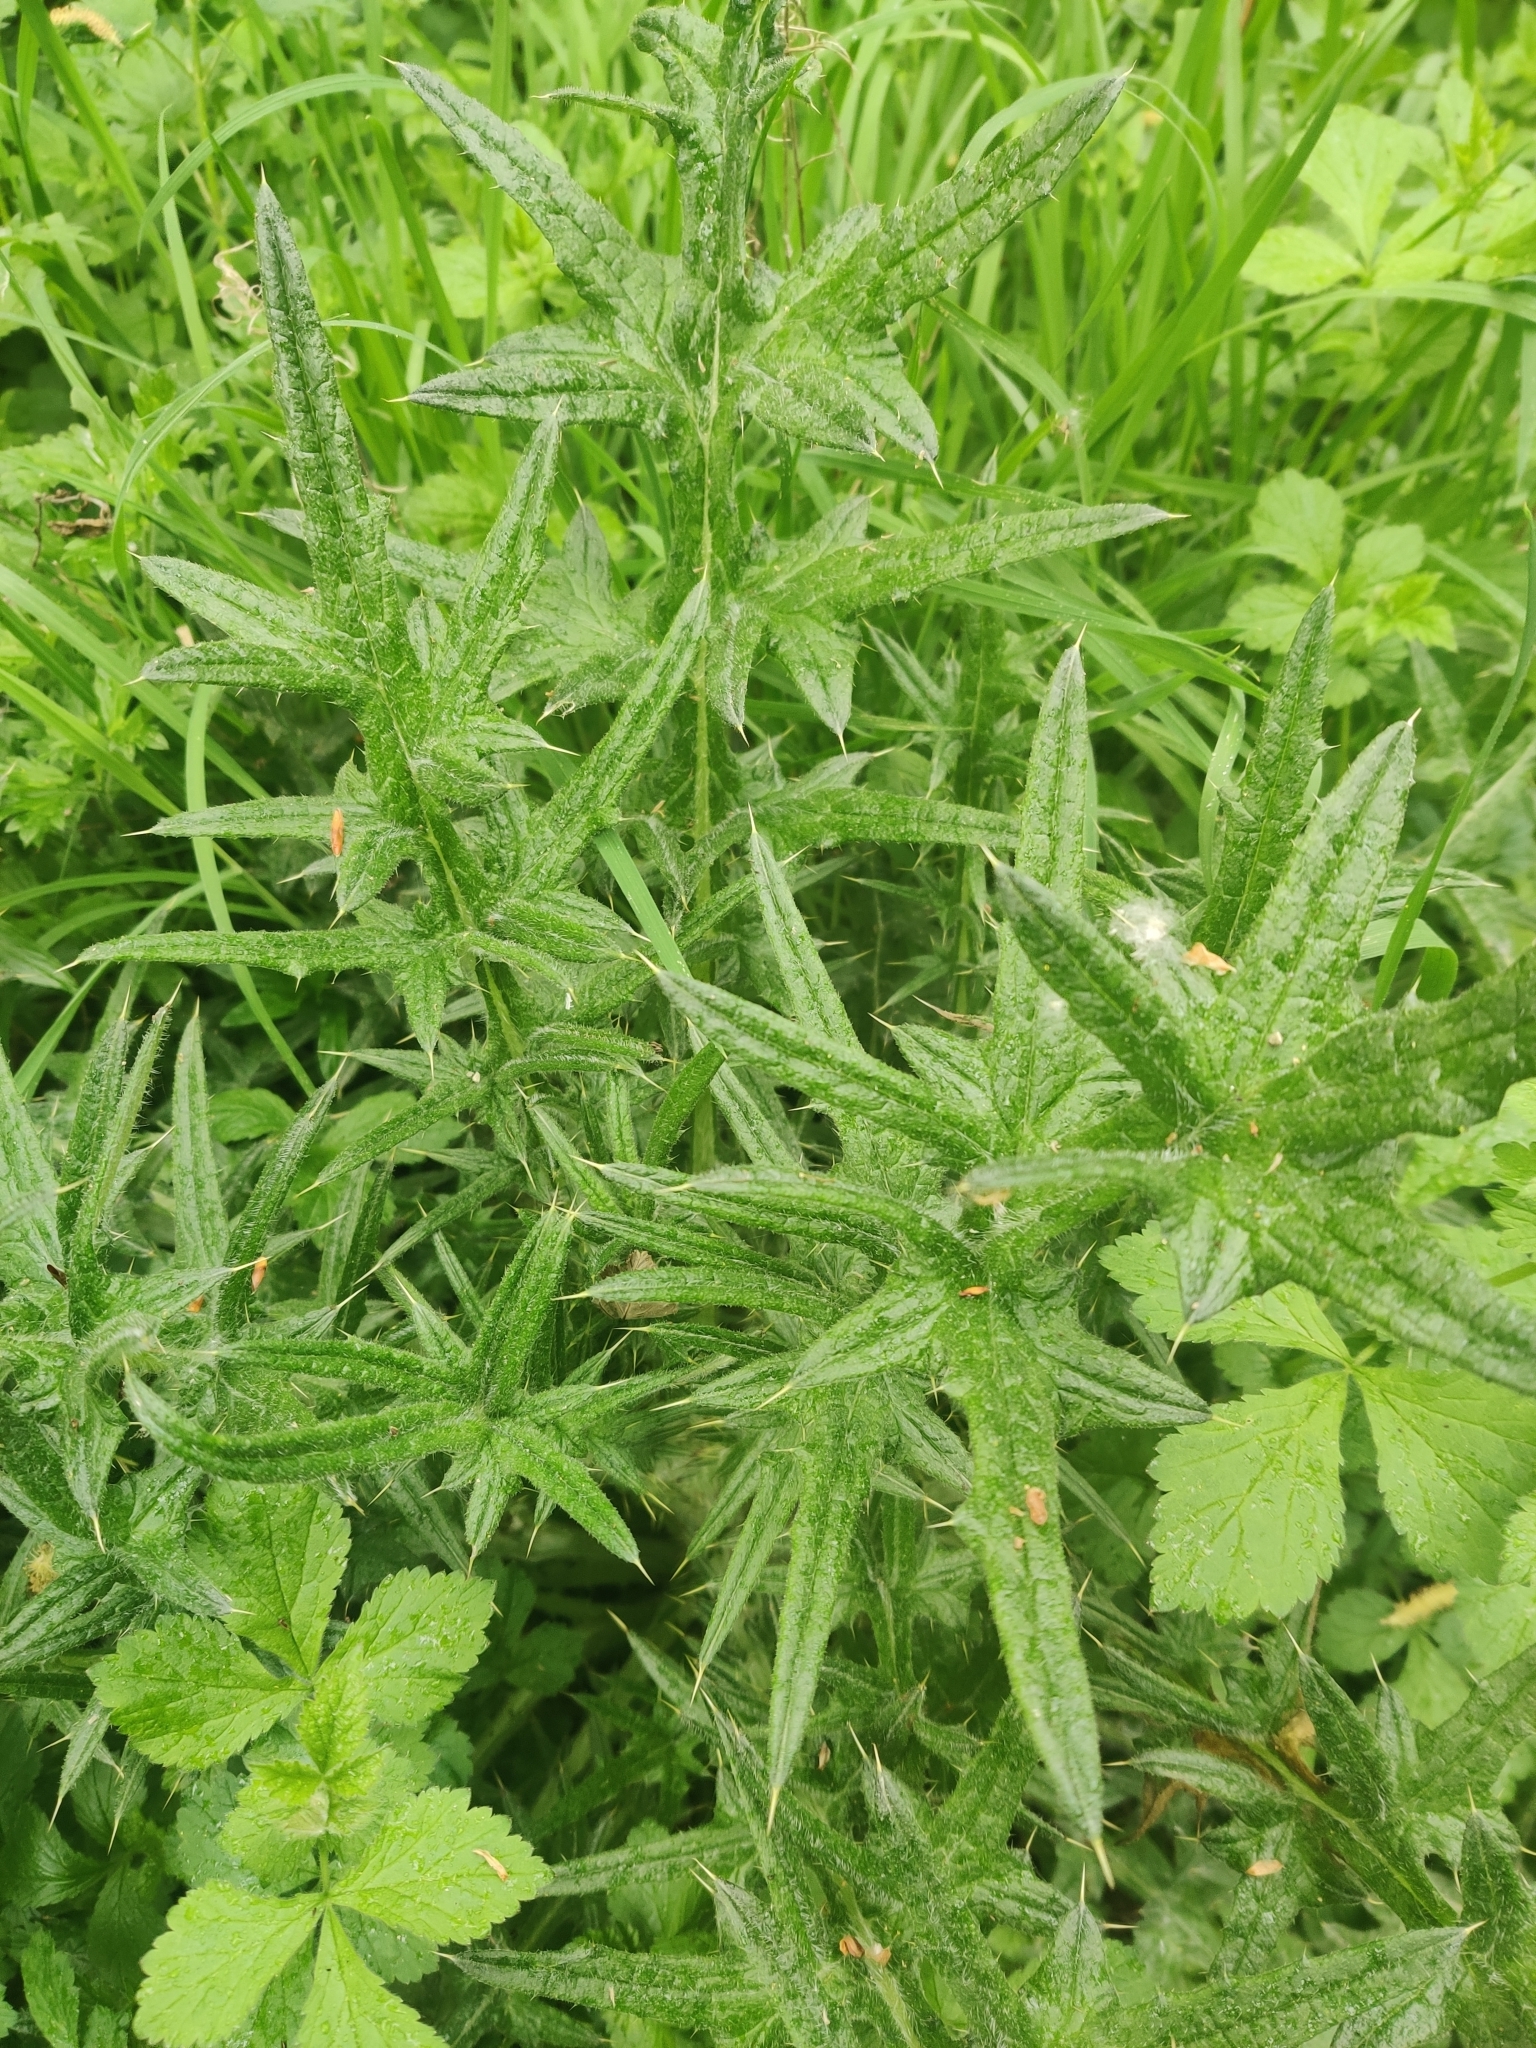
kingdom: Plantae
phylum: Tracheophyta
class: Magnoliopsida
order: Asterales
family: Asteraceae
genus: Cirsium
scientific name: Cirsium vulgare
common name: Bull thistle
